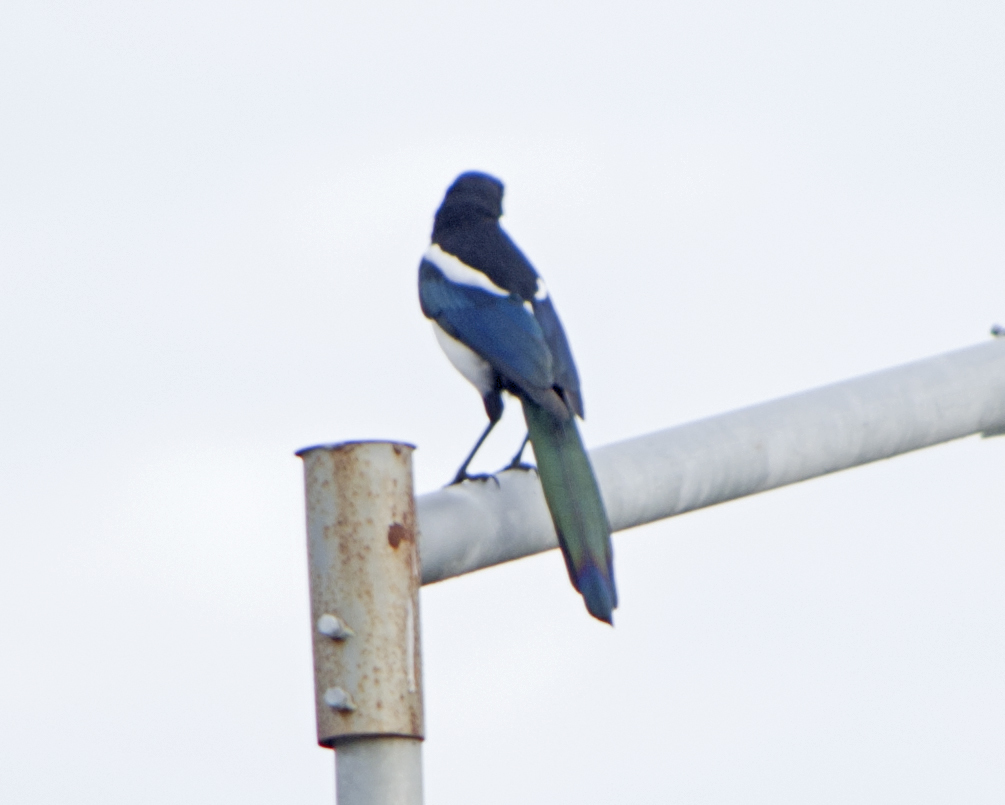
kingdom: Animalia
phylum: Chordata
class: Aves
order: Passeriformes
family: Corvidae
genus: Pica
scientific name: Pica pica
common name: Eurasian magpie
